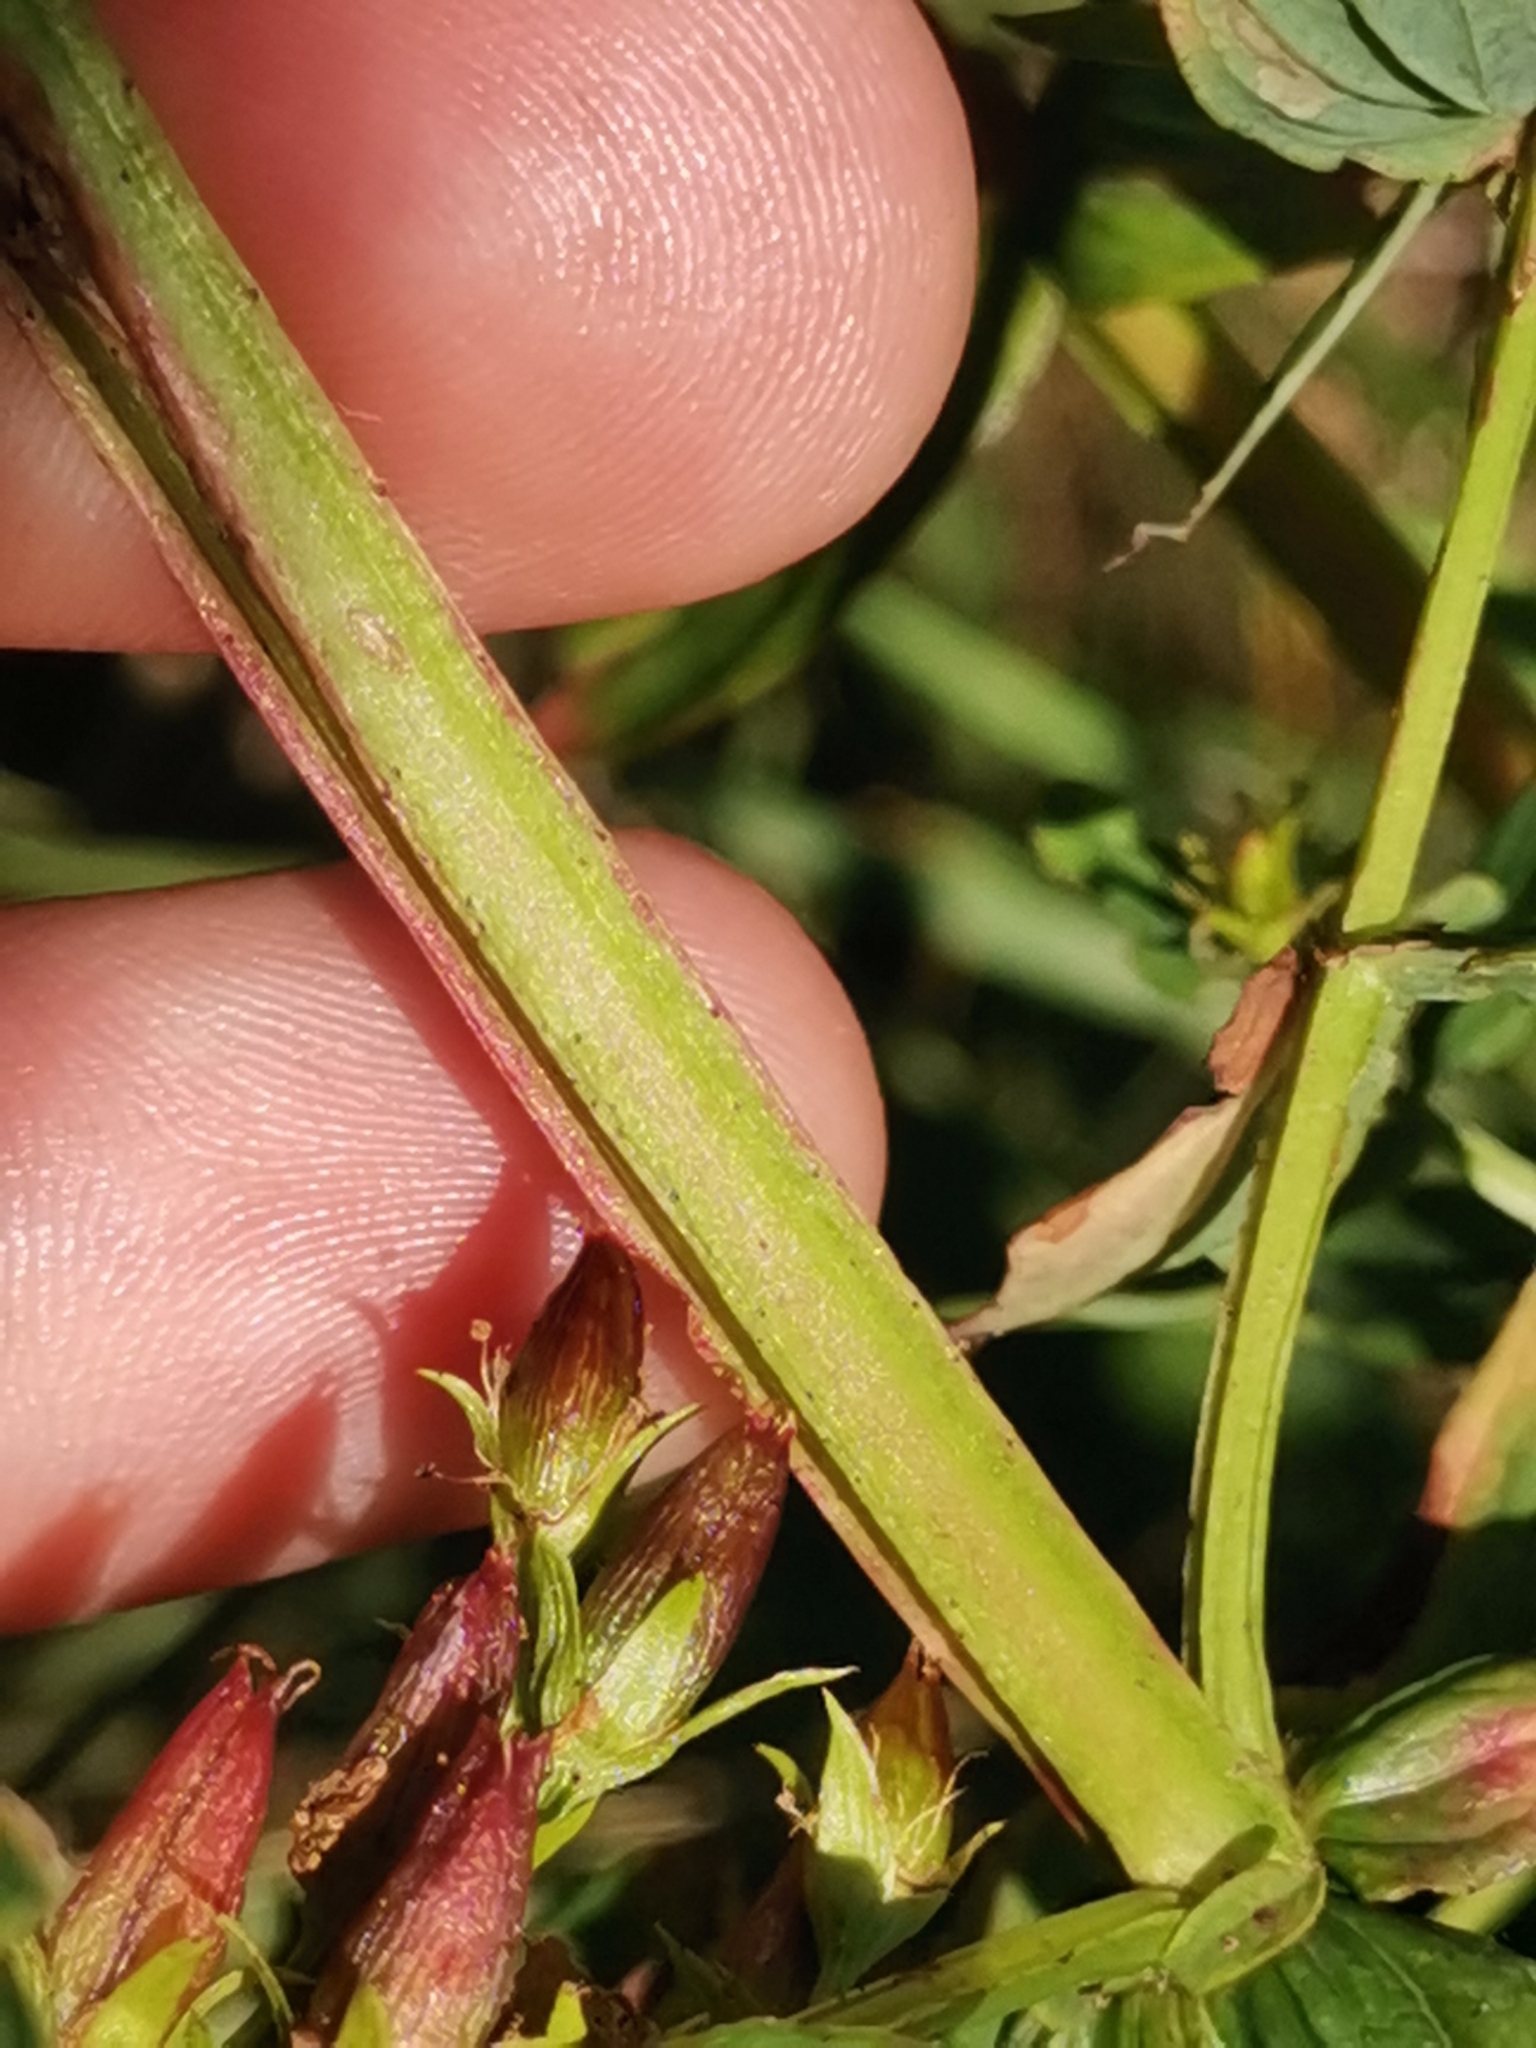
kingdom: Plantae
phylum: Tracheophyta
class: Magnoliopsida
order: Malpighiales
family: Hypericaceae
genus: Hypericum
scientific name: Hypericum tetrapterum
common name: Square-stalked st. john's-wort
